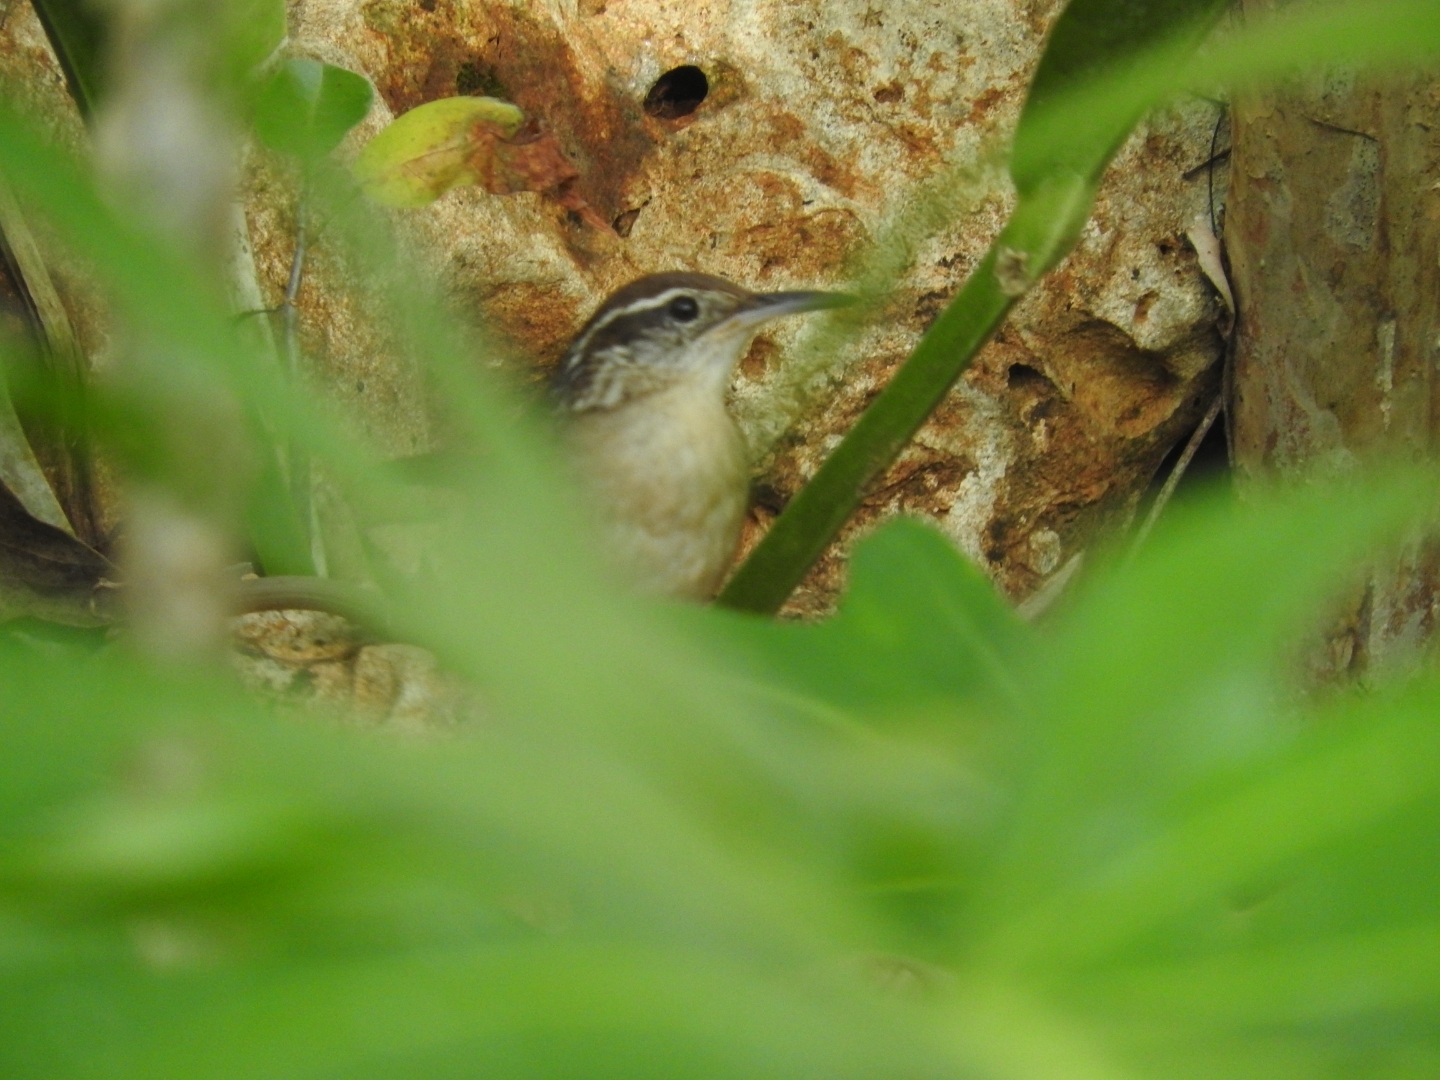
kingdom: Animalia
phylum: Chordata
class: Aves
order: Passeriformes
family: Troglodytidae
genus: Thryothorus
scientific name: Thryothorus ludovicianus
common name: Carolina wren
